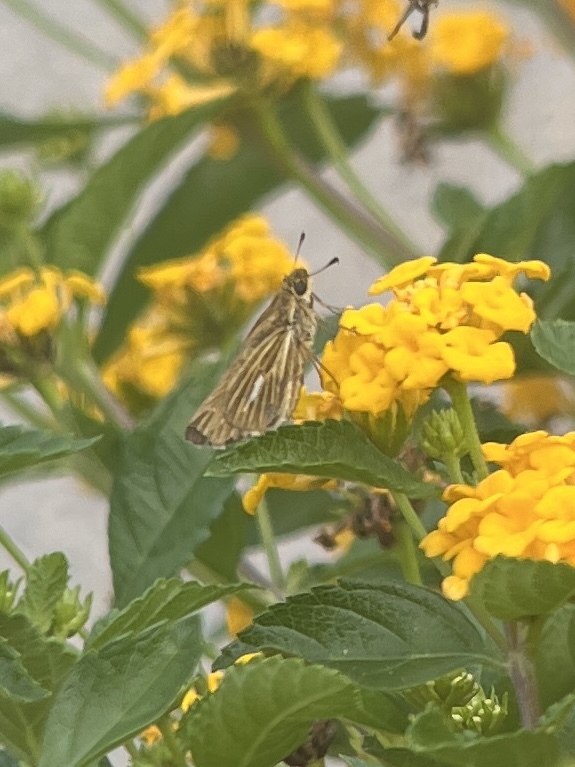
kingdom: Animalia
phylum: Arthropoda
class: Insecta
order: Lepidoptera
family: Hesperiidae
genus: Panoquina
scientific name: Panoquina panoquin
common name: Salt marsh skipper
